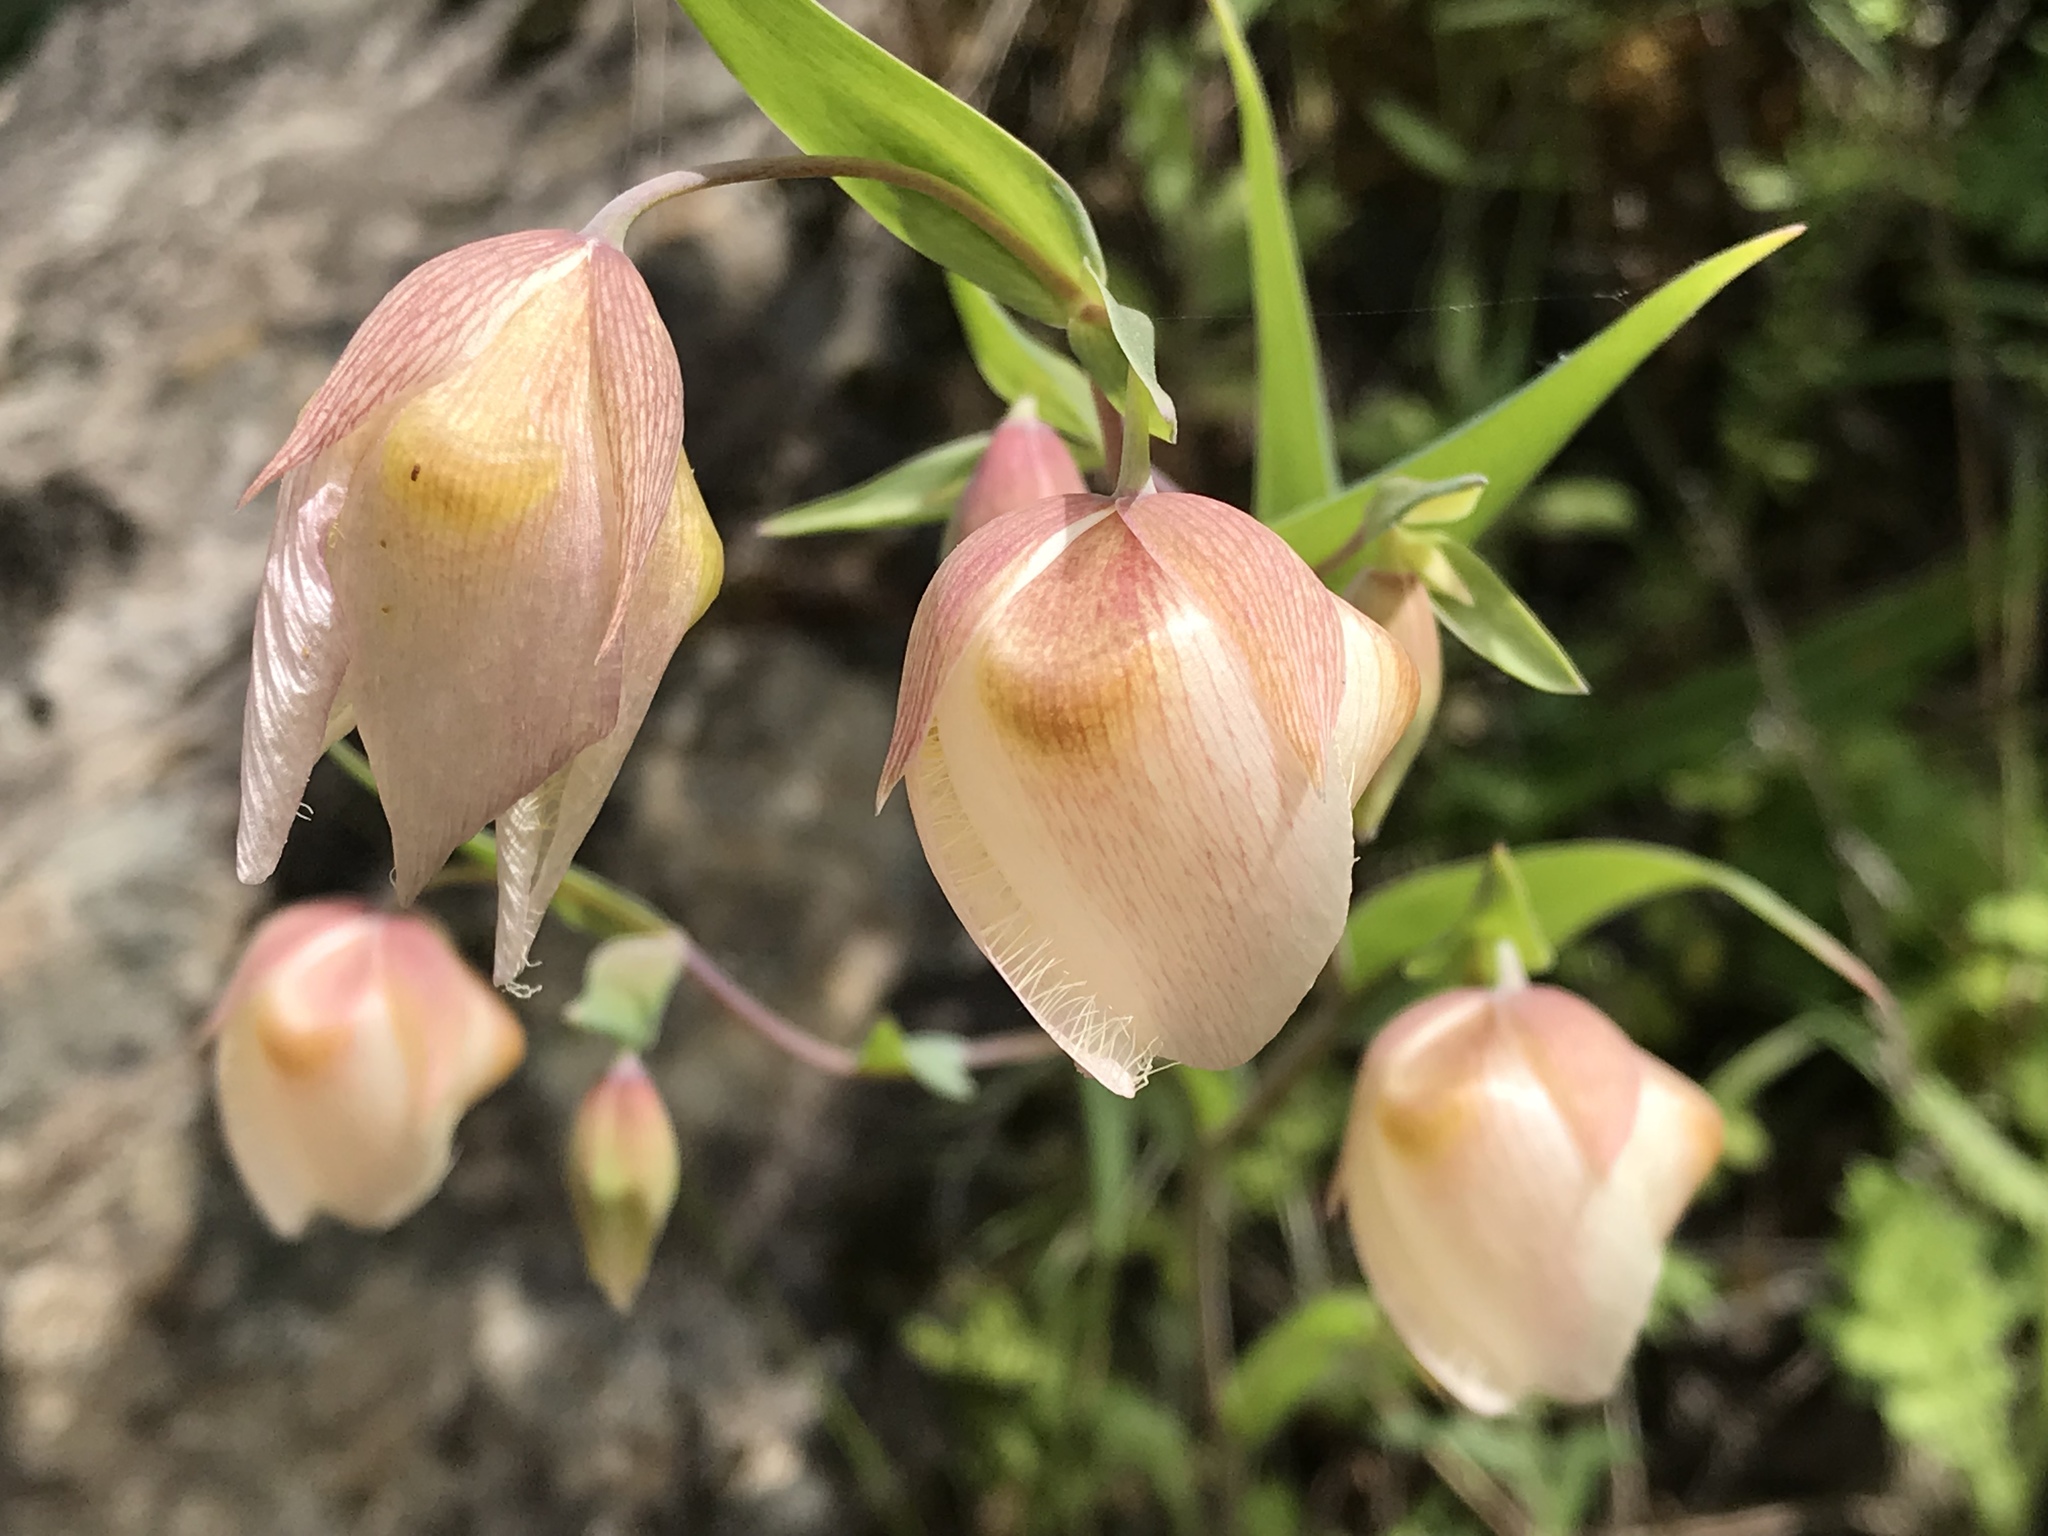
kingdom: Plantae
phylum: Tracheophyta
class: Liliopsida
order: Liliales
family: Liliaceae
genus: Calochortus
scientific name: Calochortus albus
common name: Fairy-lantern
